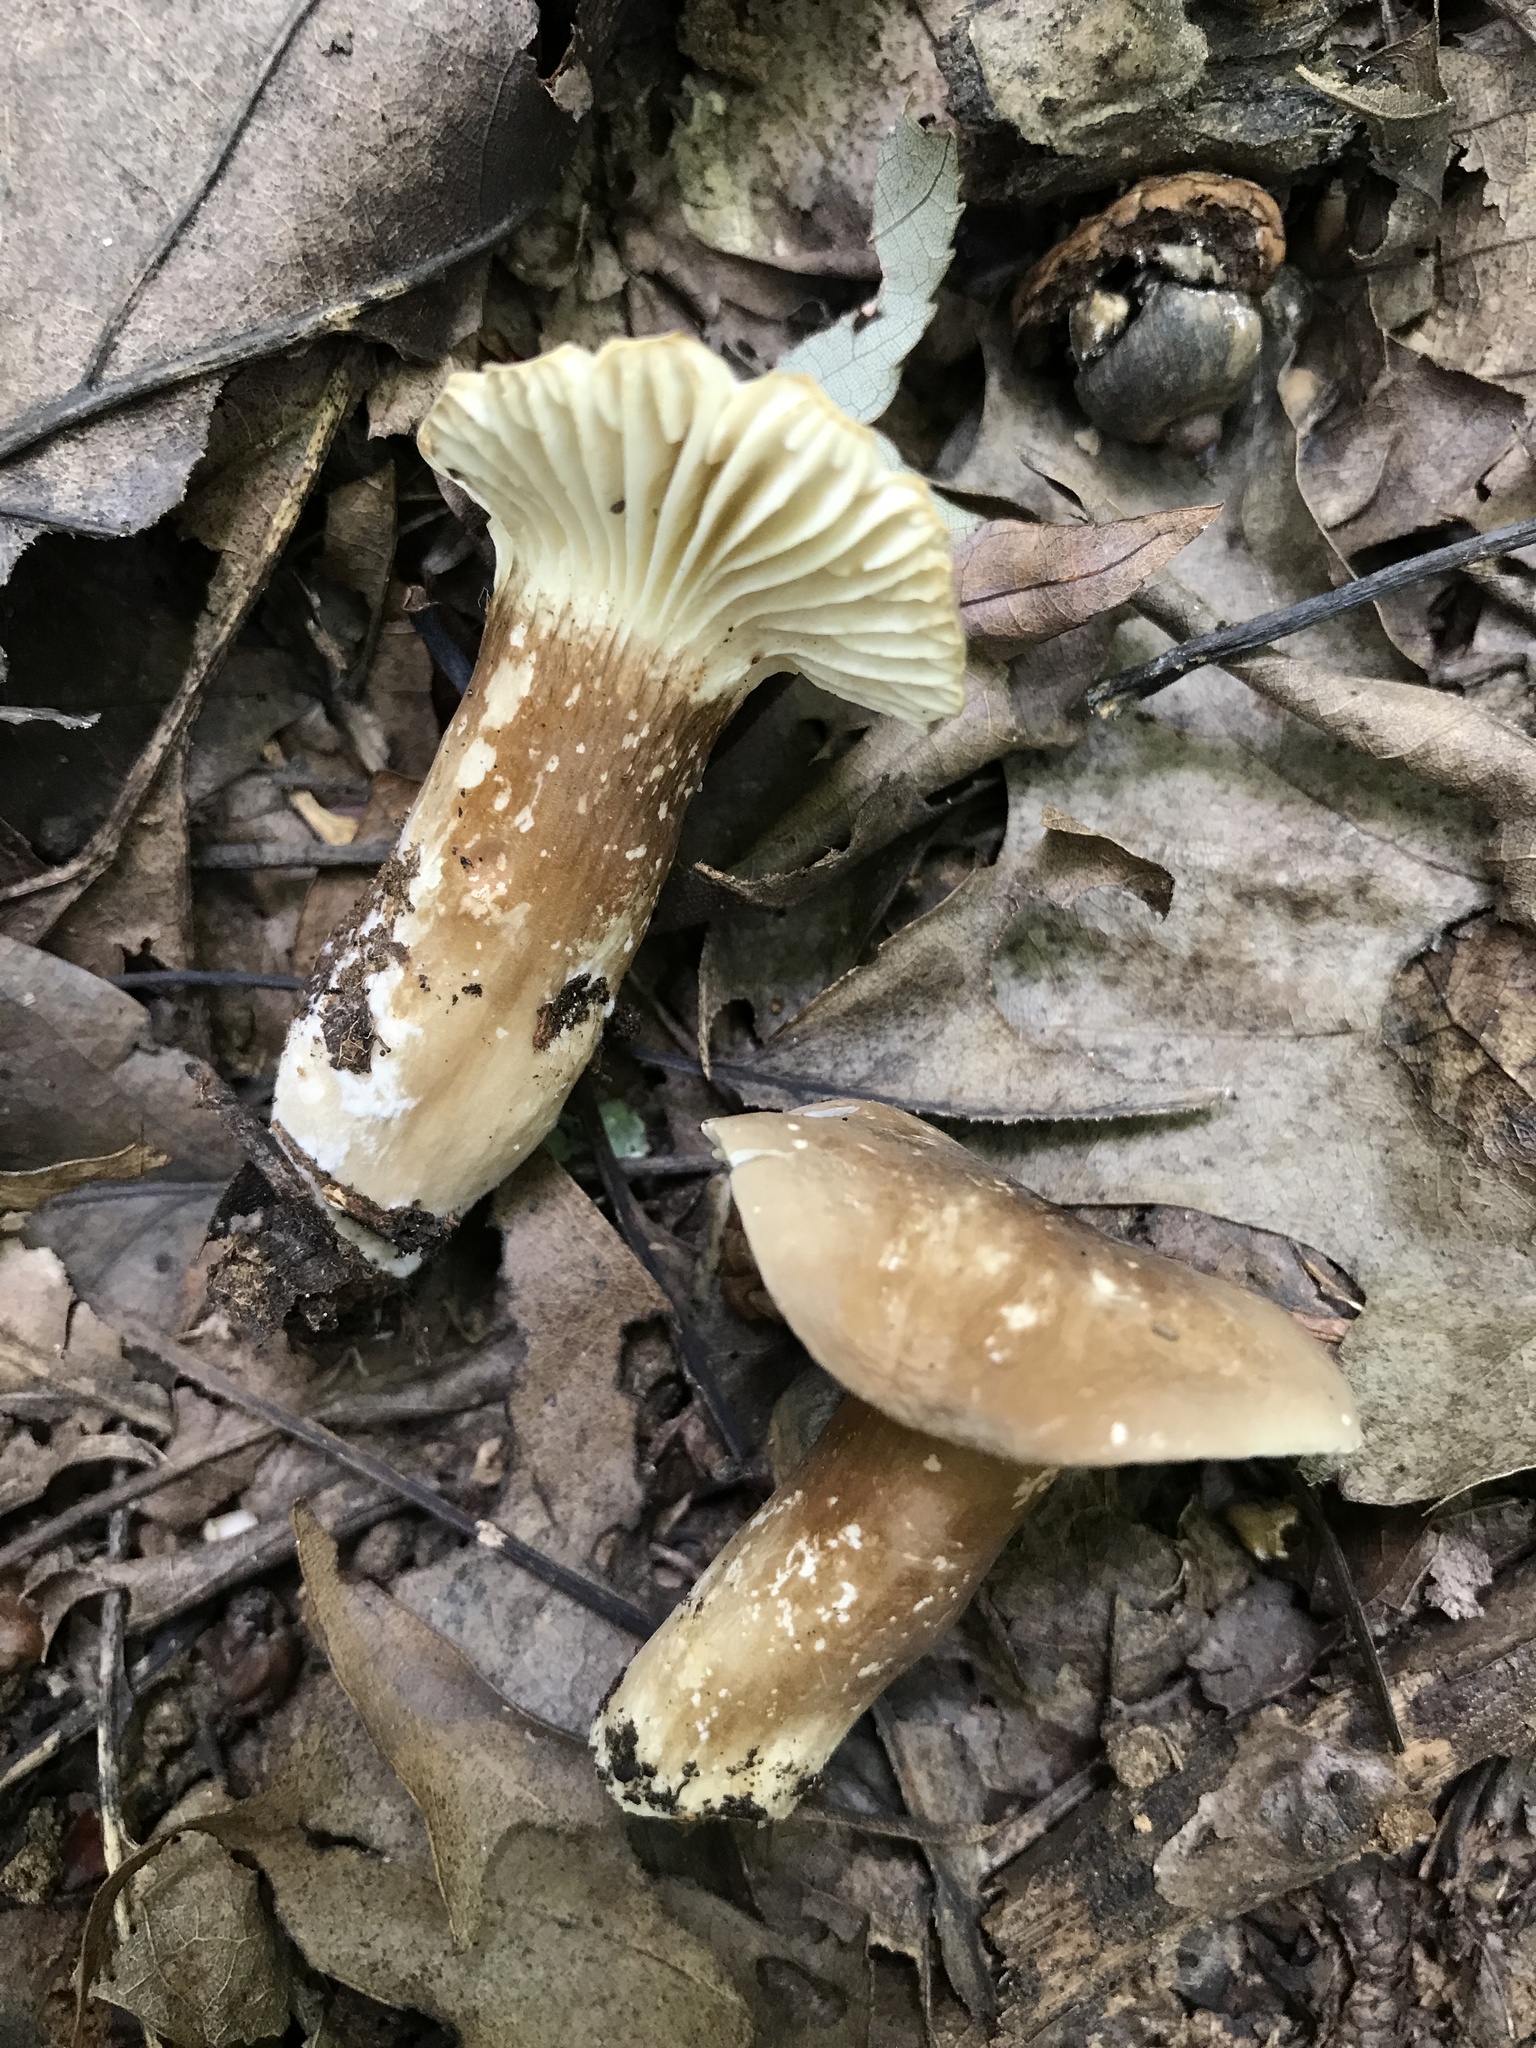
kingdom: Fungi
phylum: Basidiomycota
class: Agaricomycetes
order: Russulales
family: Russulaceae
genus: Lactarius
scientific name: Lactarius gerardii
